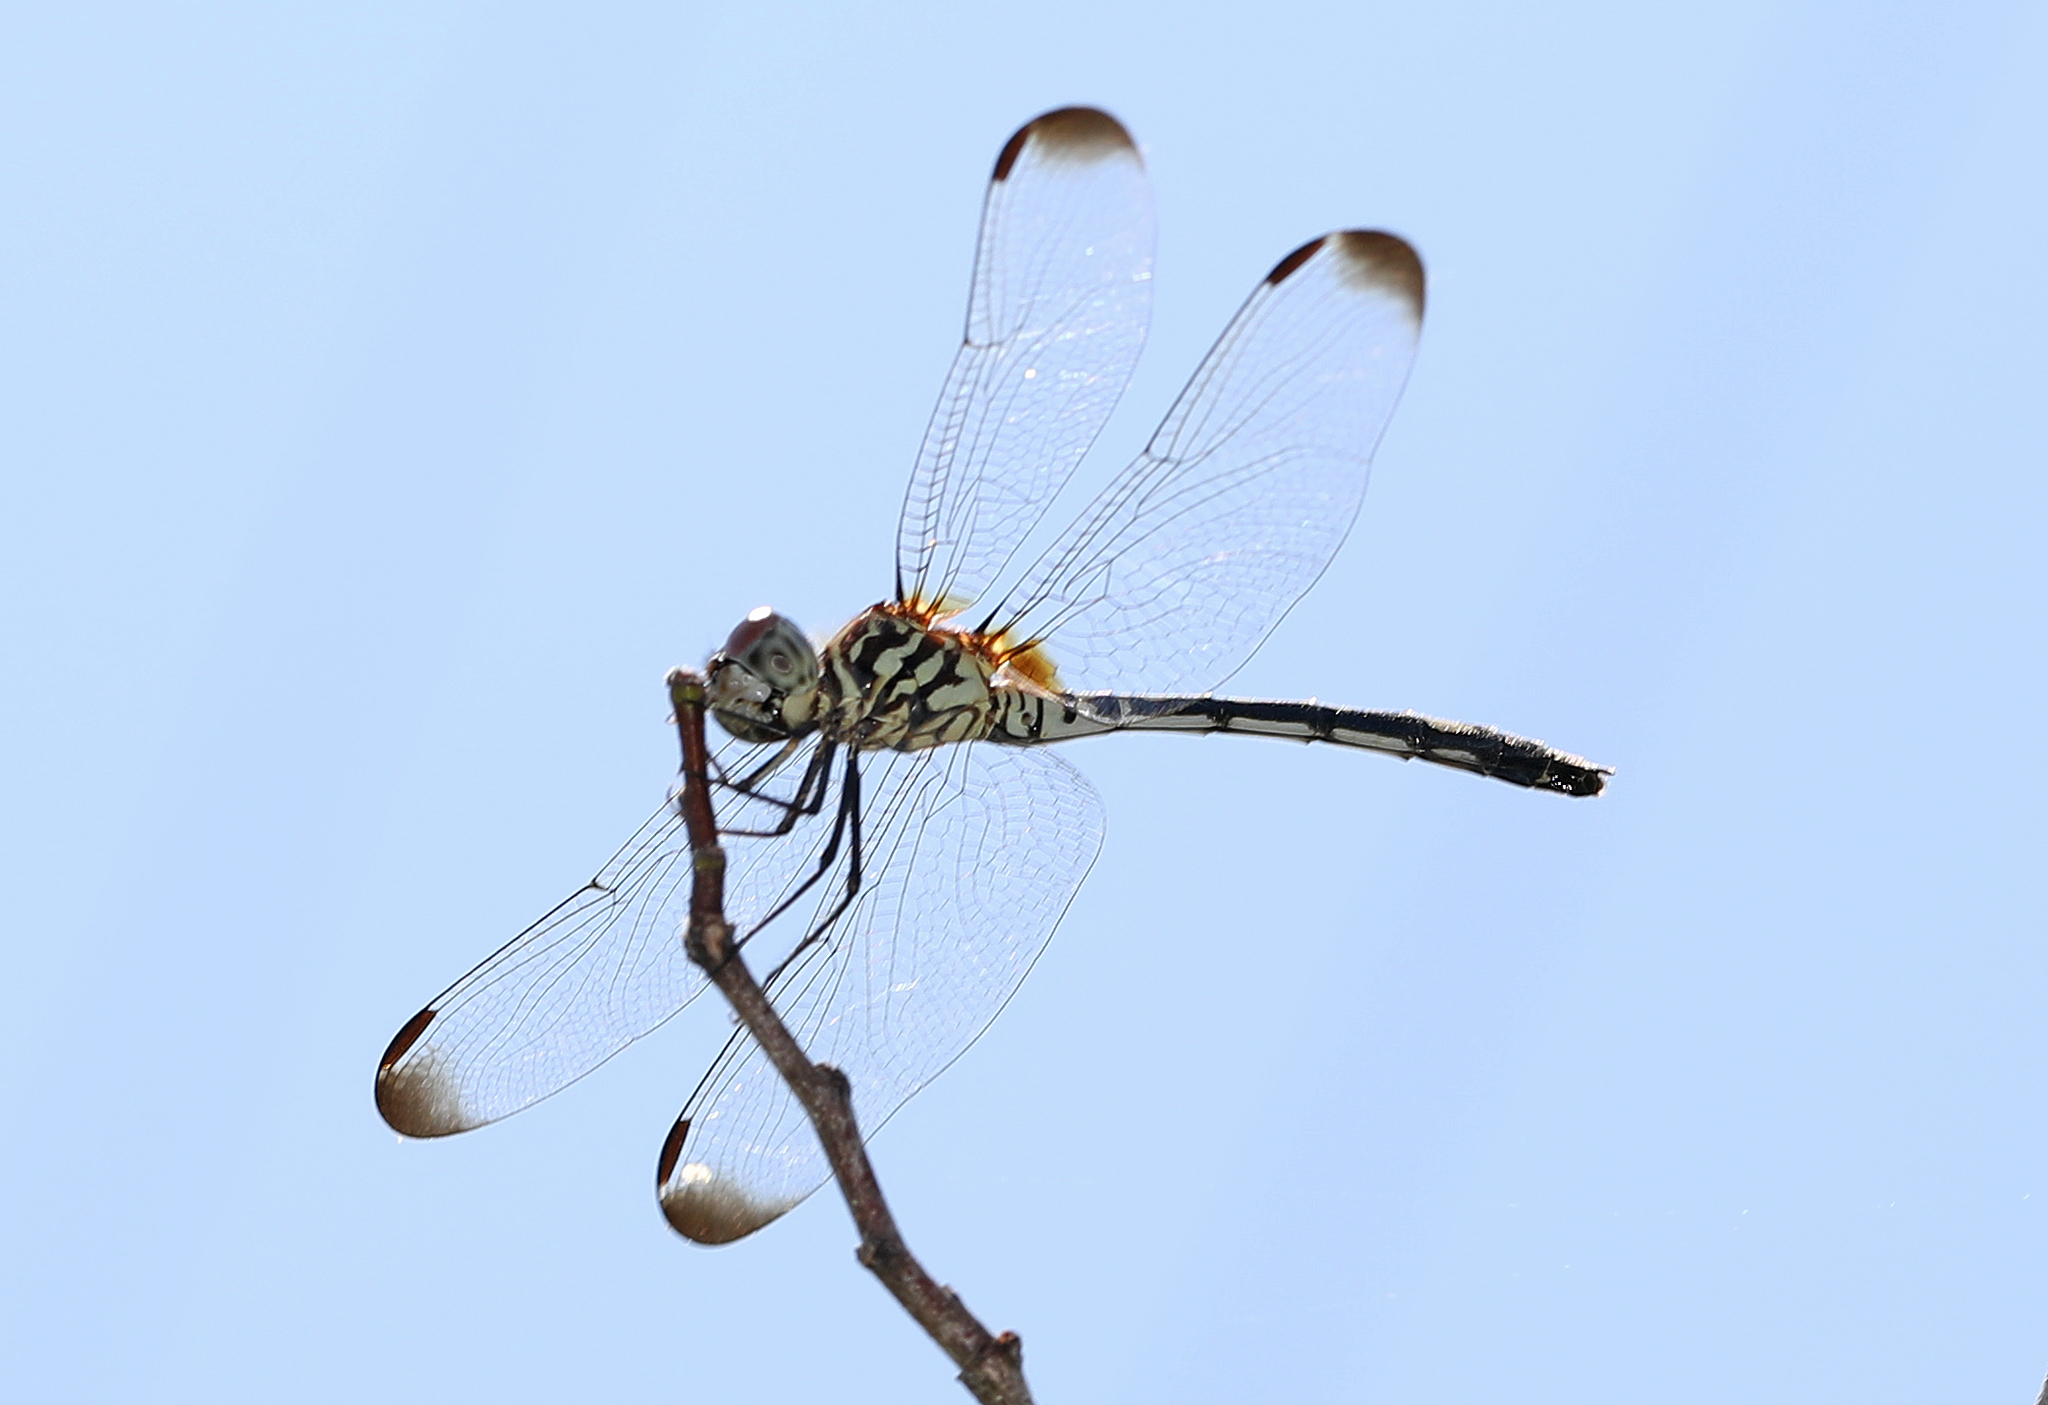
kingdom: Animalia
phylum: Arthropoda
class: Insecta
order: Odonata
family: Libellulidae
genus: Dythemis
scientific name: Dythemis velox
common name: Swift setwing
